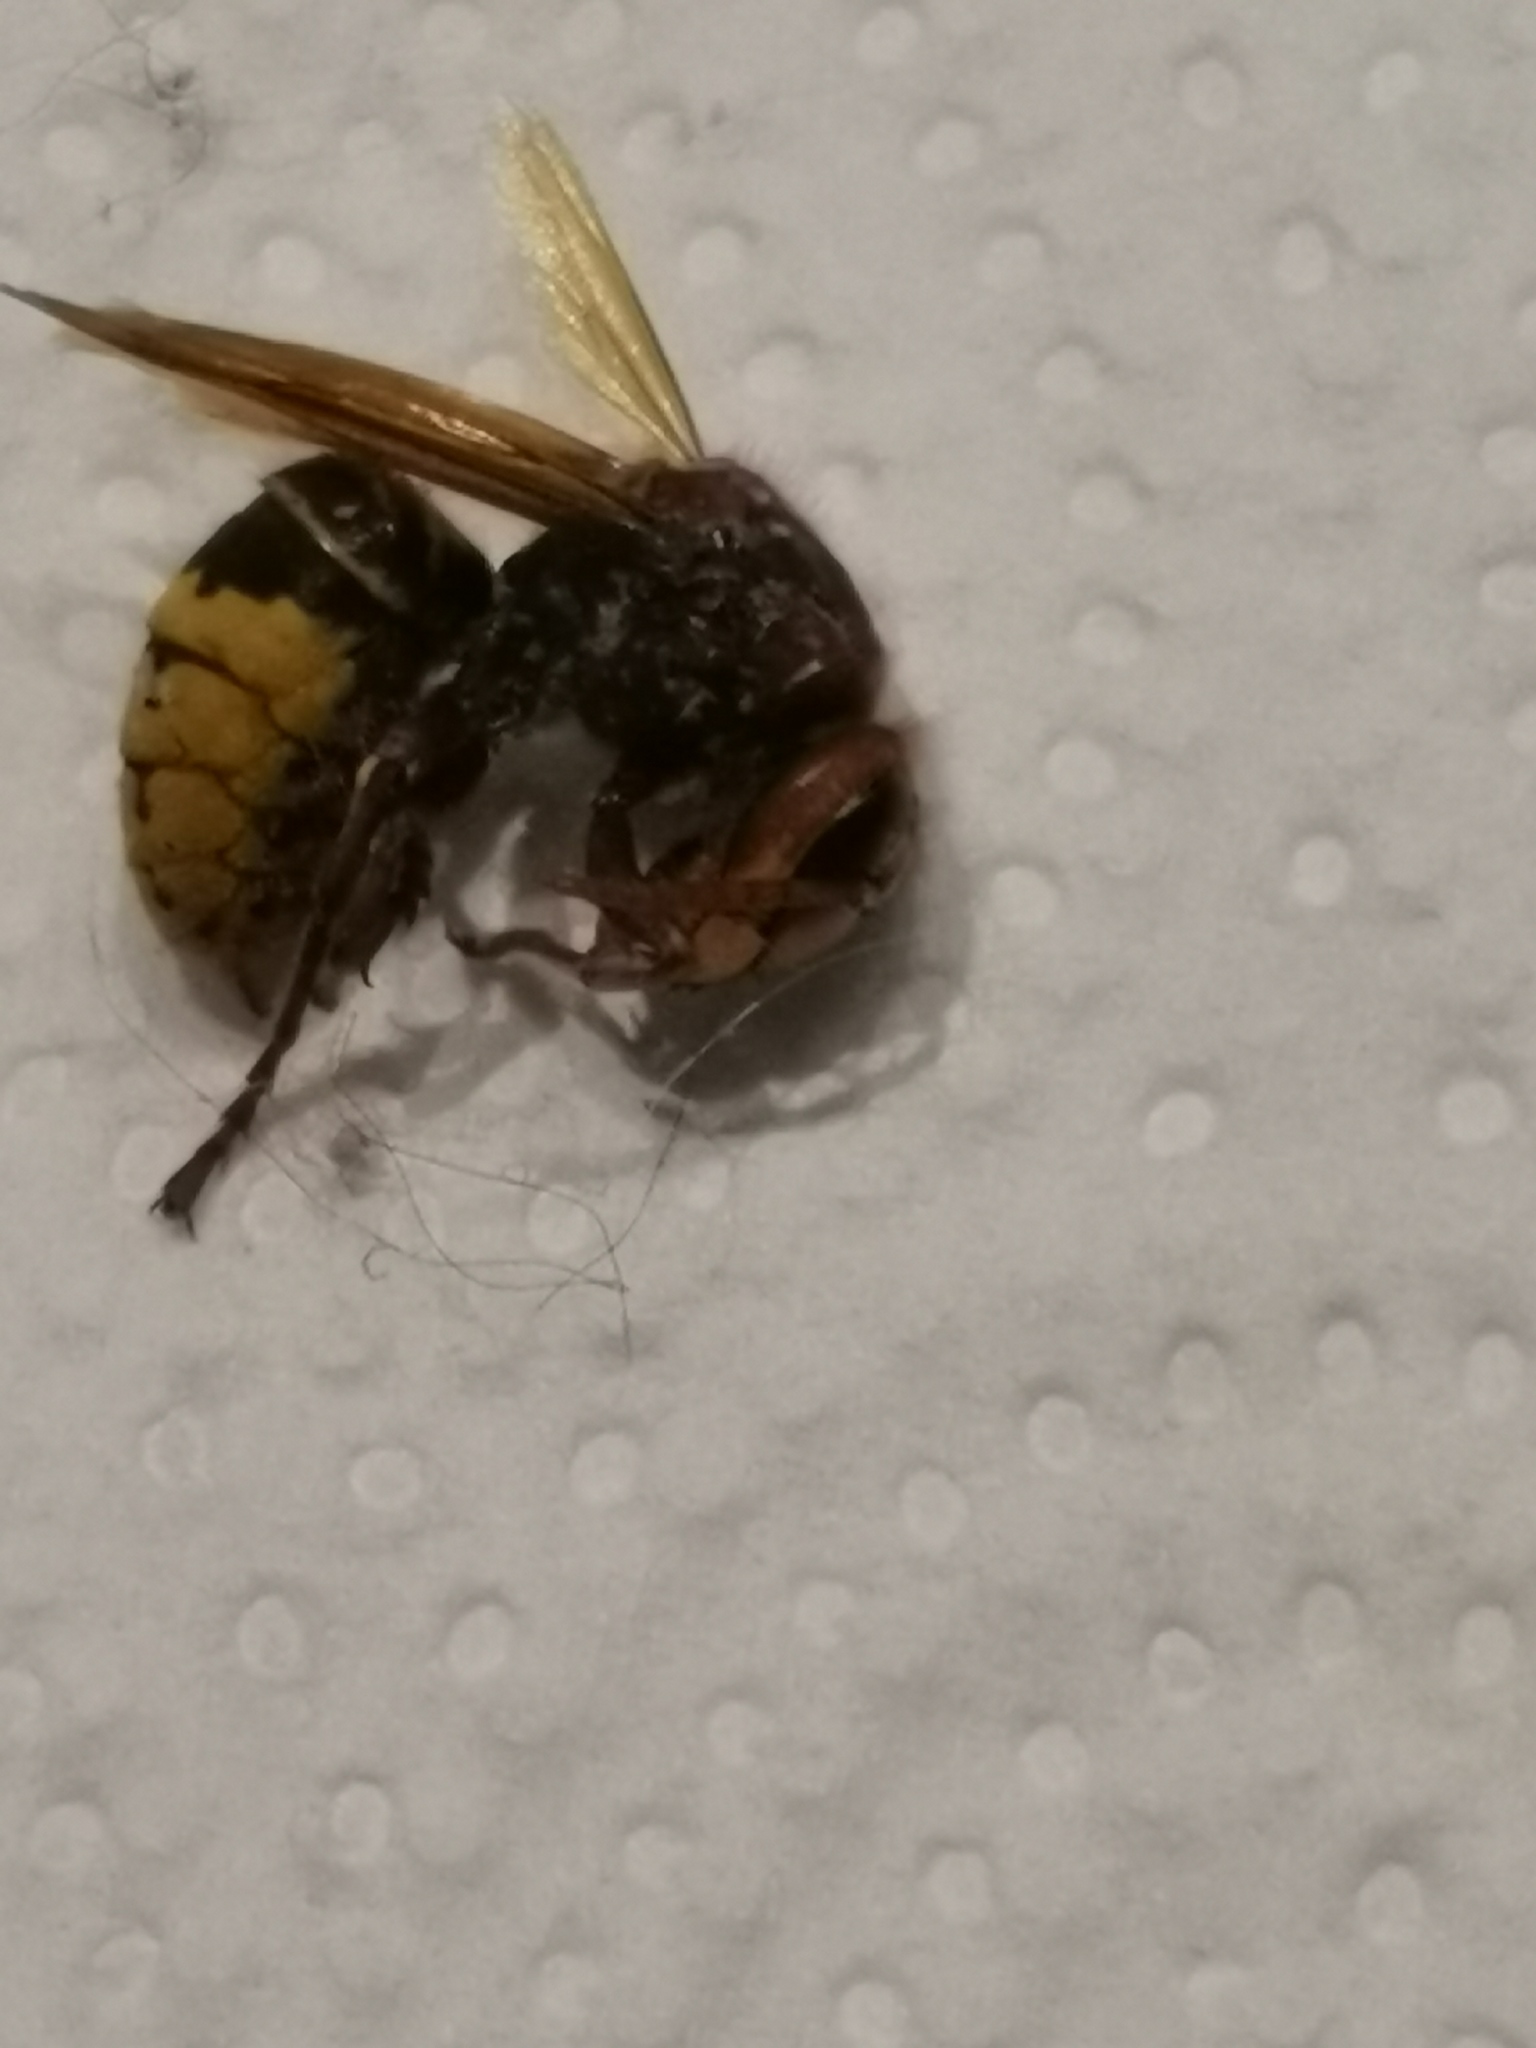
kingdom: Animalia
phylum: Arthropoda
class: Insecta
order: Hymenoptera
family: Vespidae
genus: Vespa
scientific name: Vespa crabro
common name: Hornet
